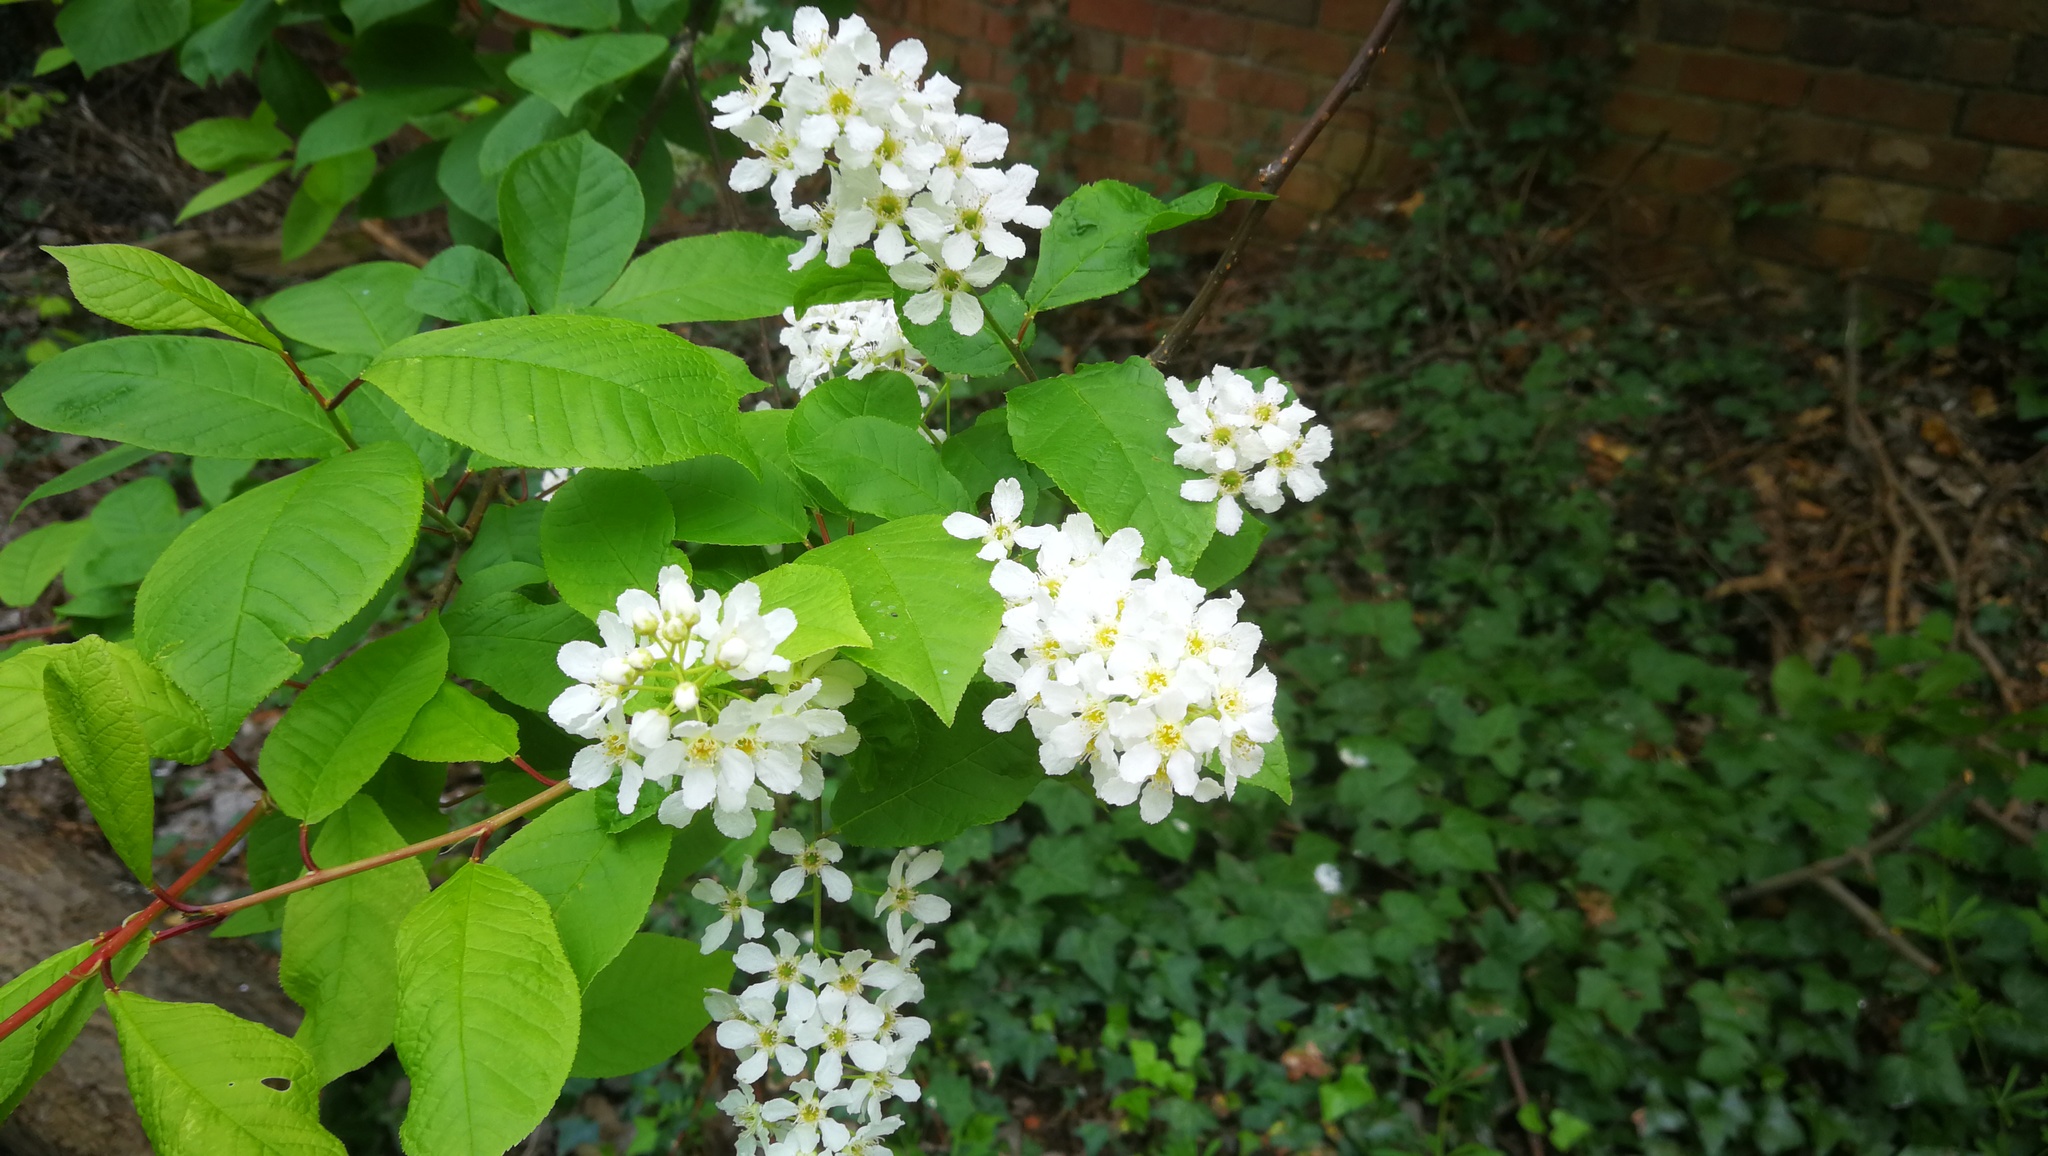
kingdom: Plantae
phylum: Tracheophyta
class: Magnoliopsida
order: Rosales
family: Rosaceae
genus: Prunus
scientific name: Prunus padus
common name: Bird cherry
